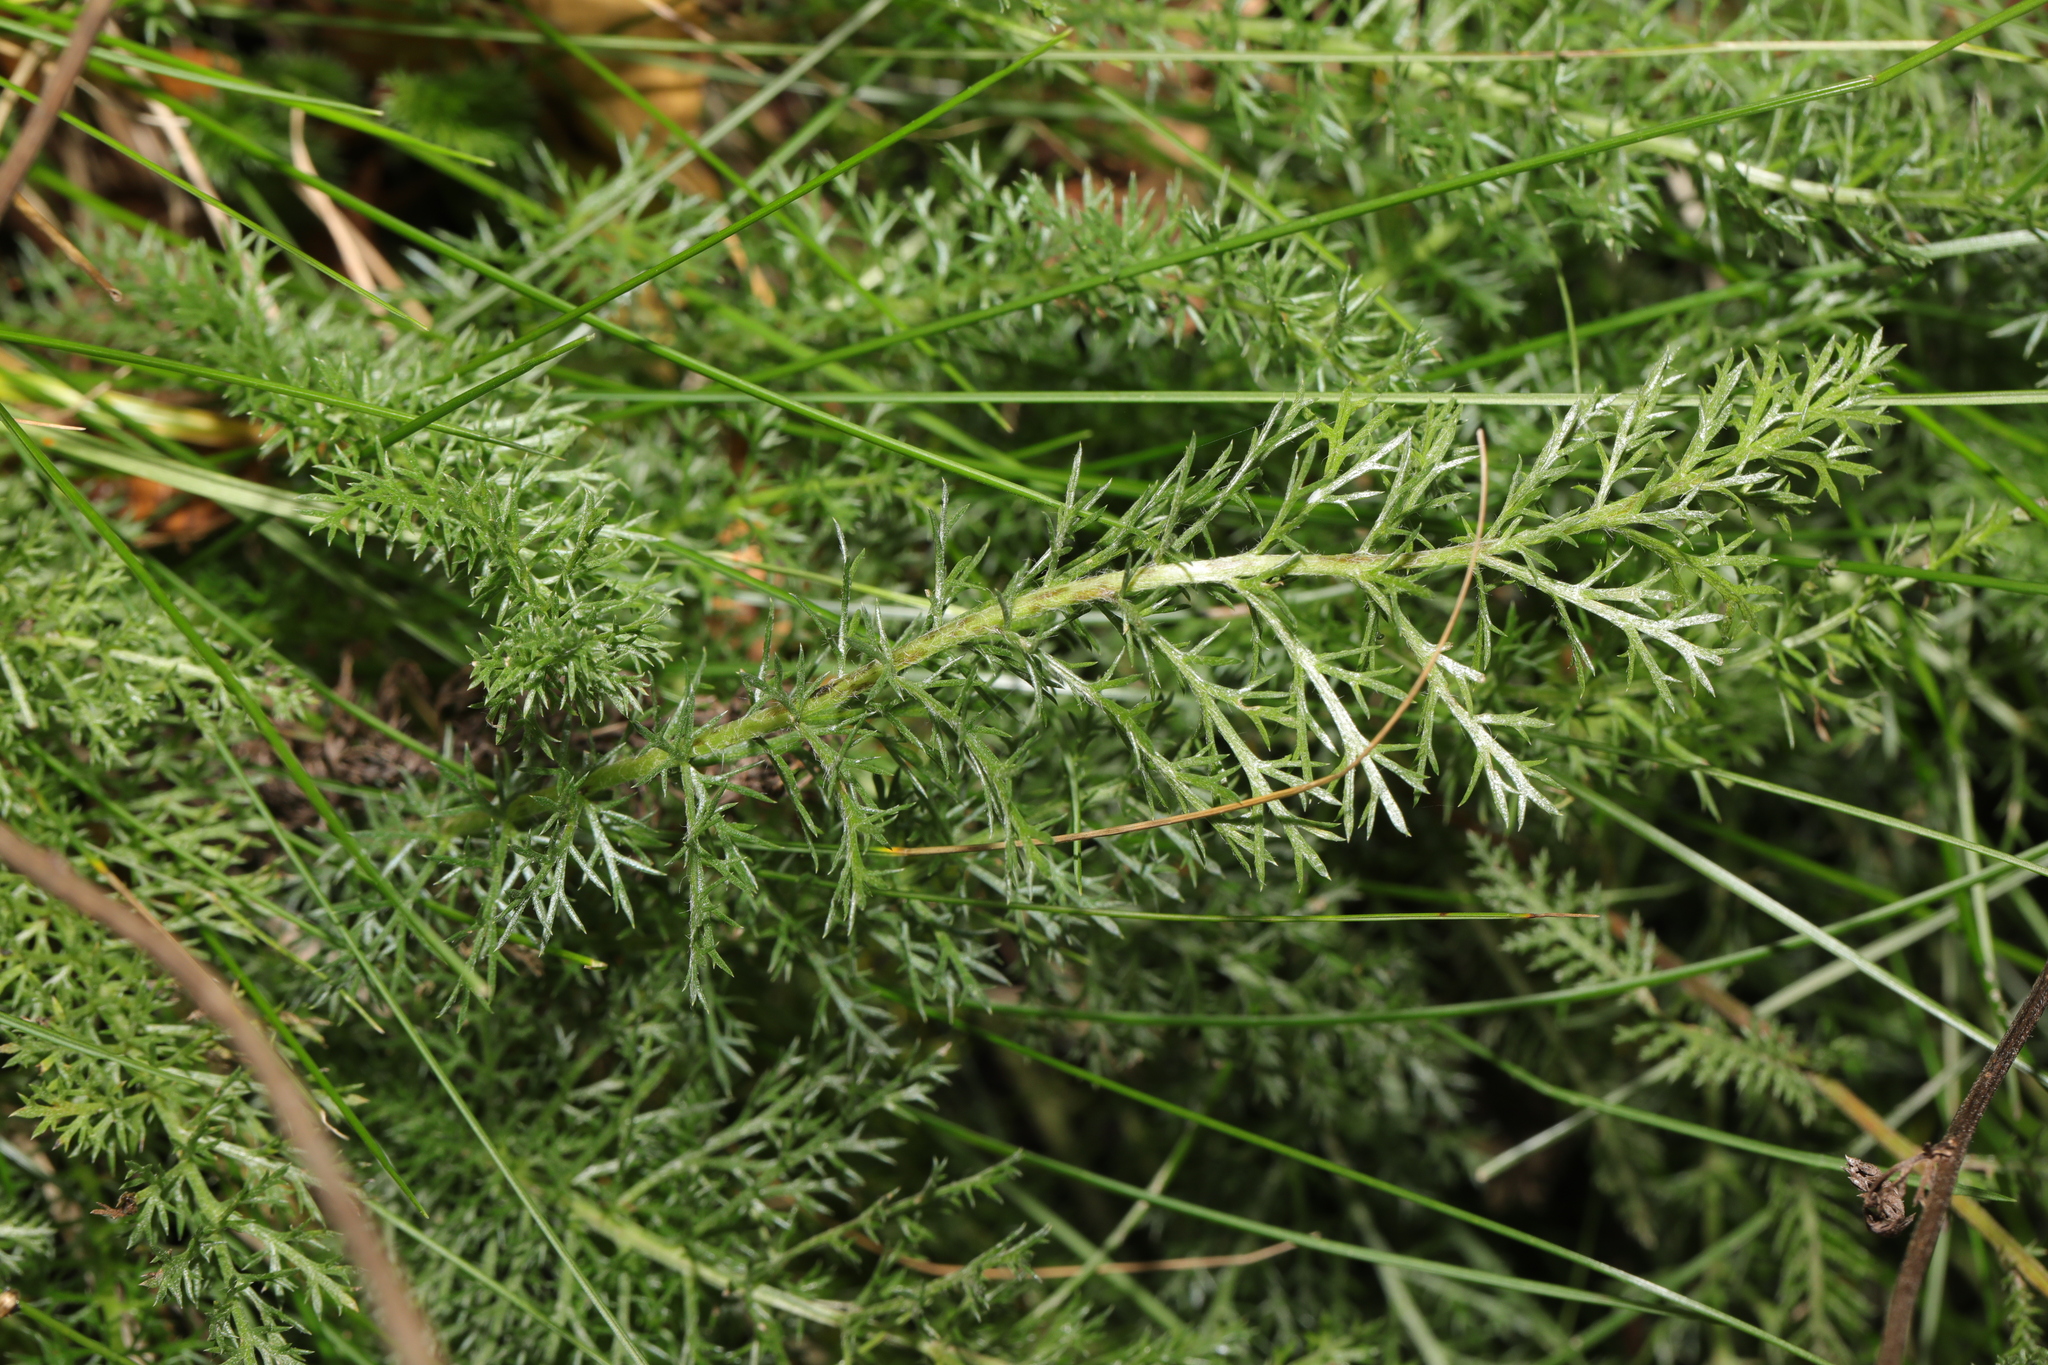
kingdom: Plantae
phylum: Tracheophyta
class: Magnoliopsida
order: Asterales
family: Asteraceae
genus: Achillea
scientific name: Achillea millefolium
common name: Yarrow
